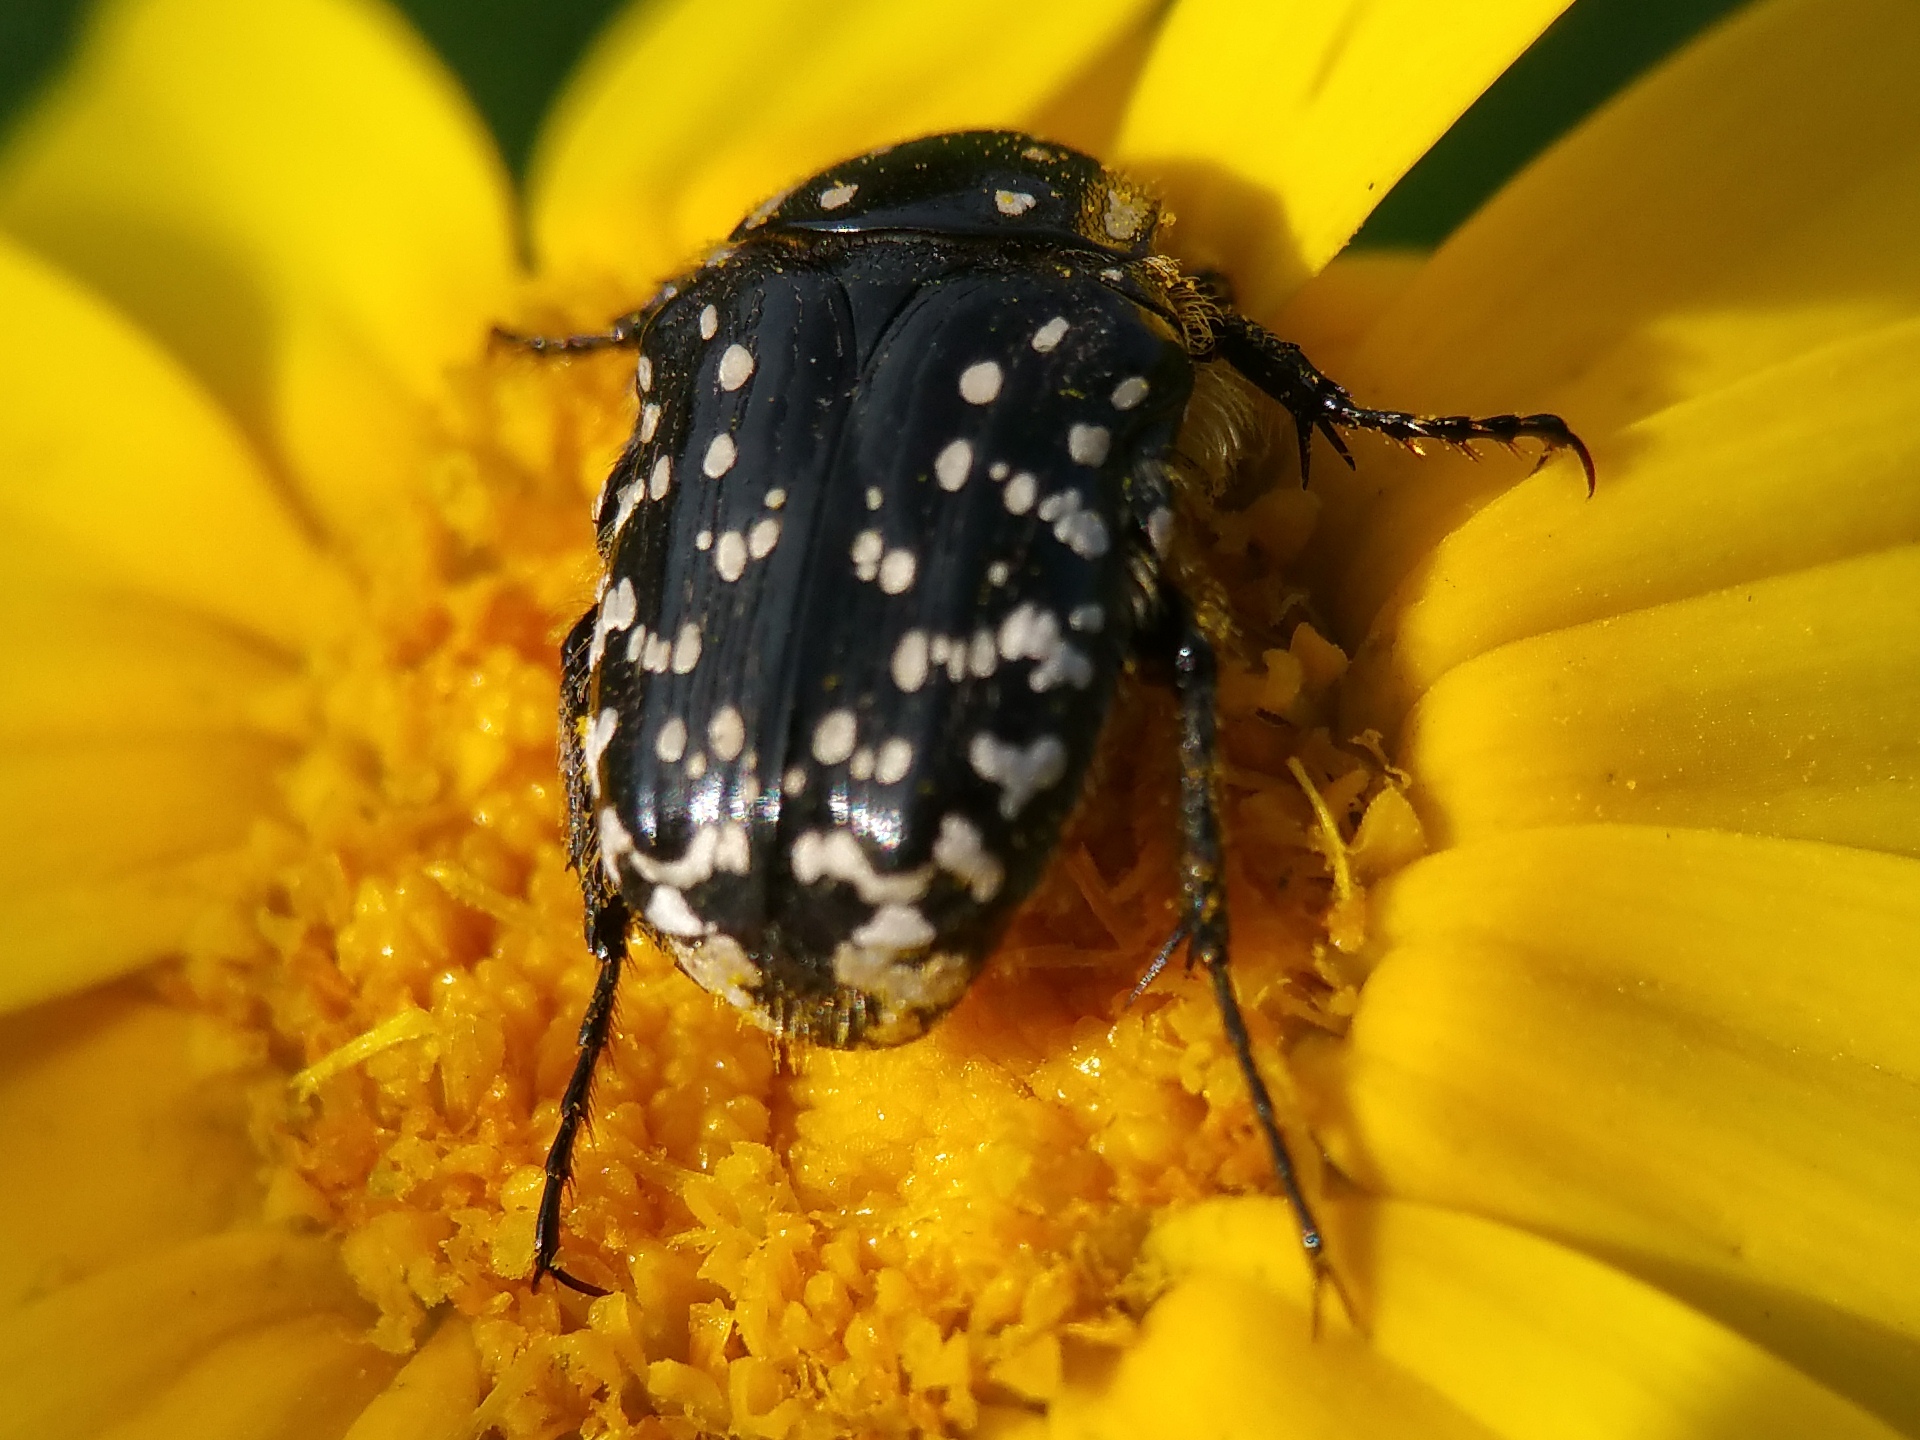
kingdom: Animalia
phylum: Arthropoda
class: Insecta
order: Coleoptera
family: Scarabaeidae
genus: Oxythyrea
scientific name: Oxythyrea noemi
